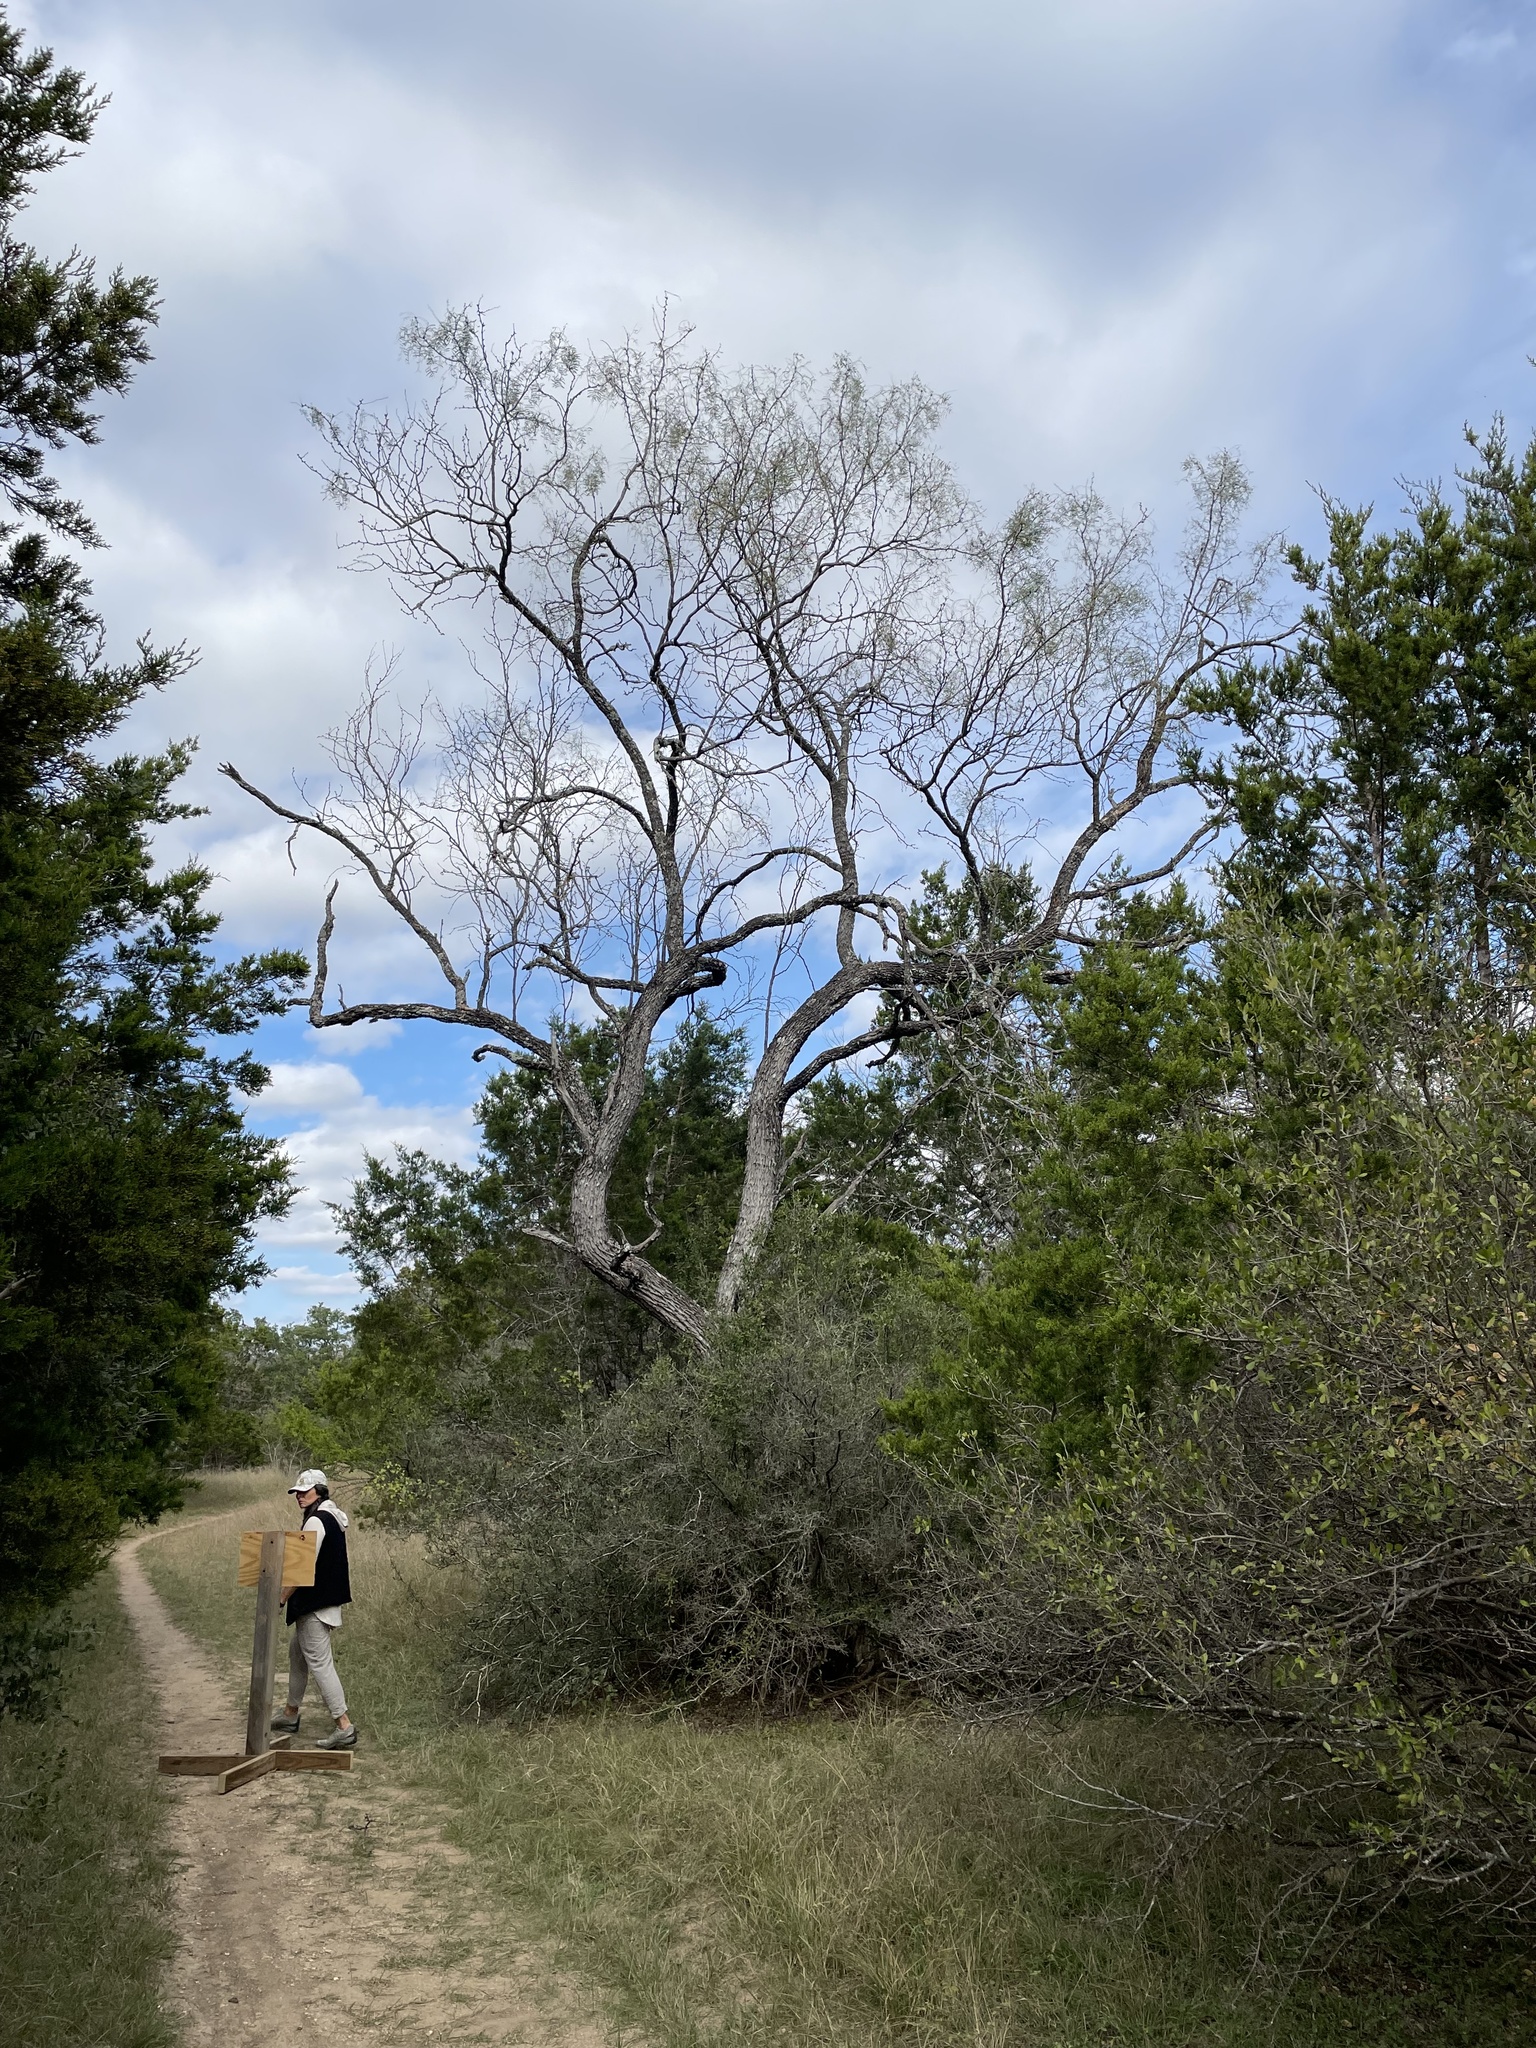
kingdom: Plantae
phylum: Tracheophyta
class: Magnoliopsida
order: Fabales
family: Fabaceae
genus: Prosopis
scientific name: Prosopis glandulosa
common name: Honey mesquite
